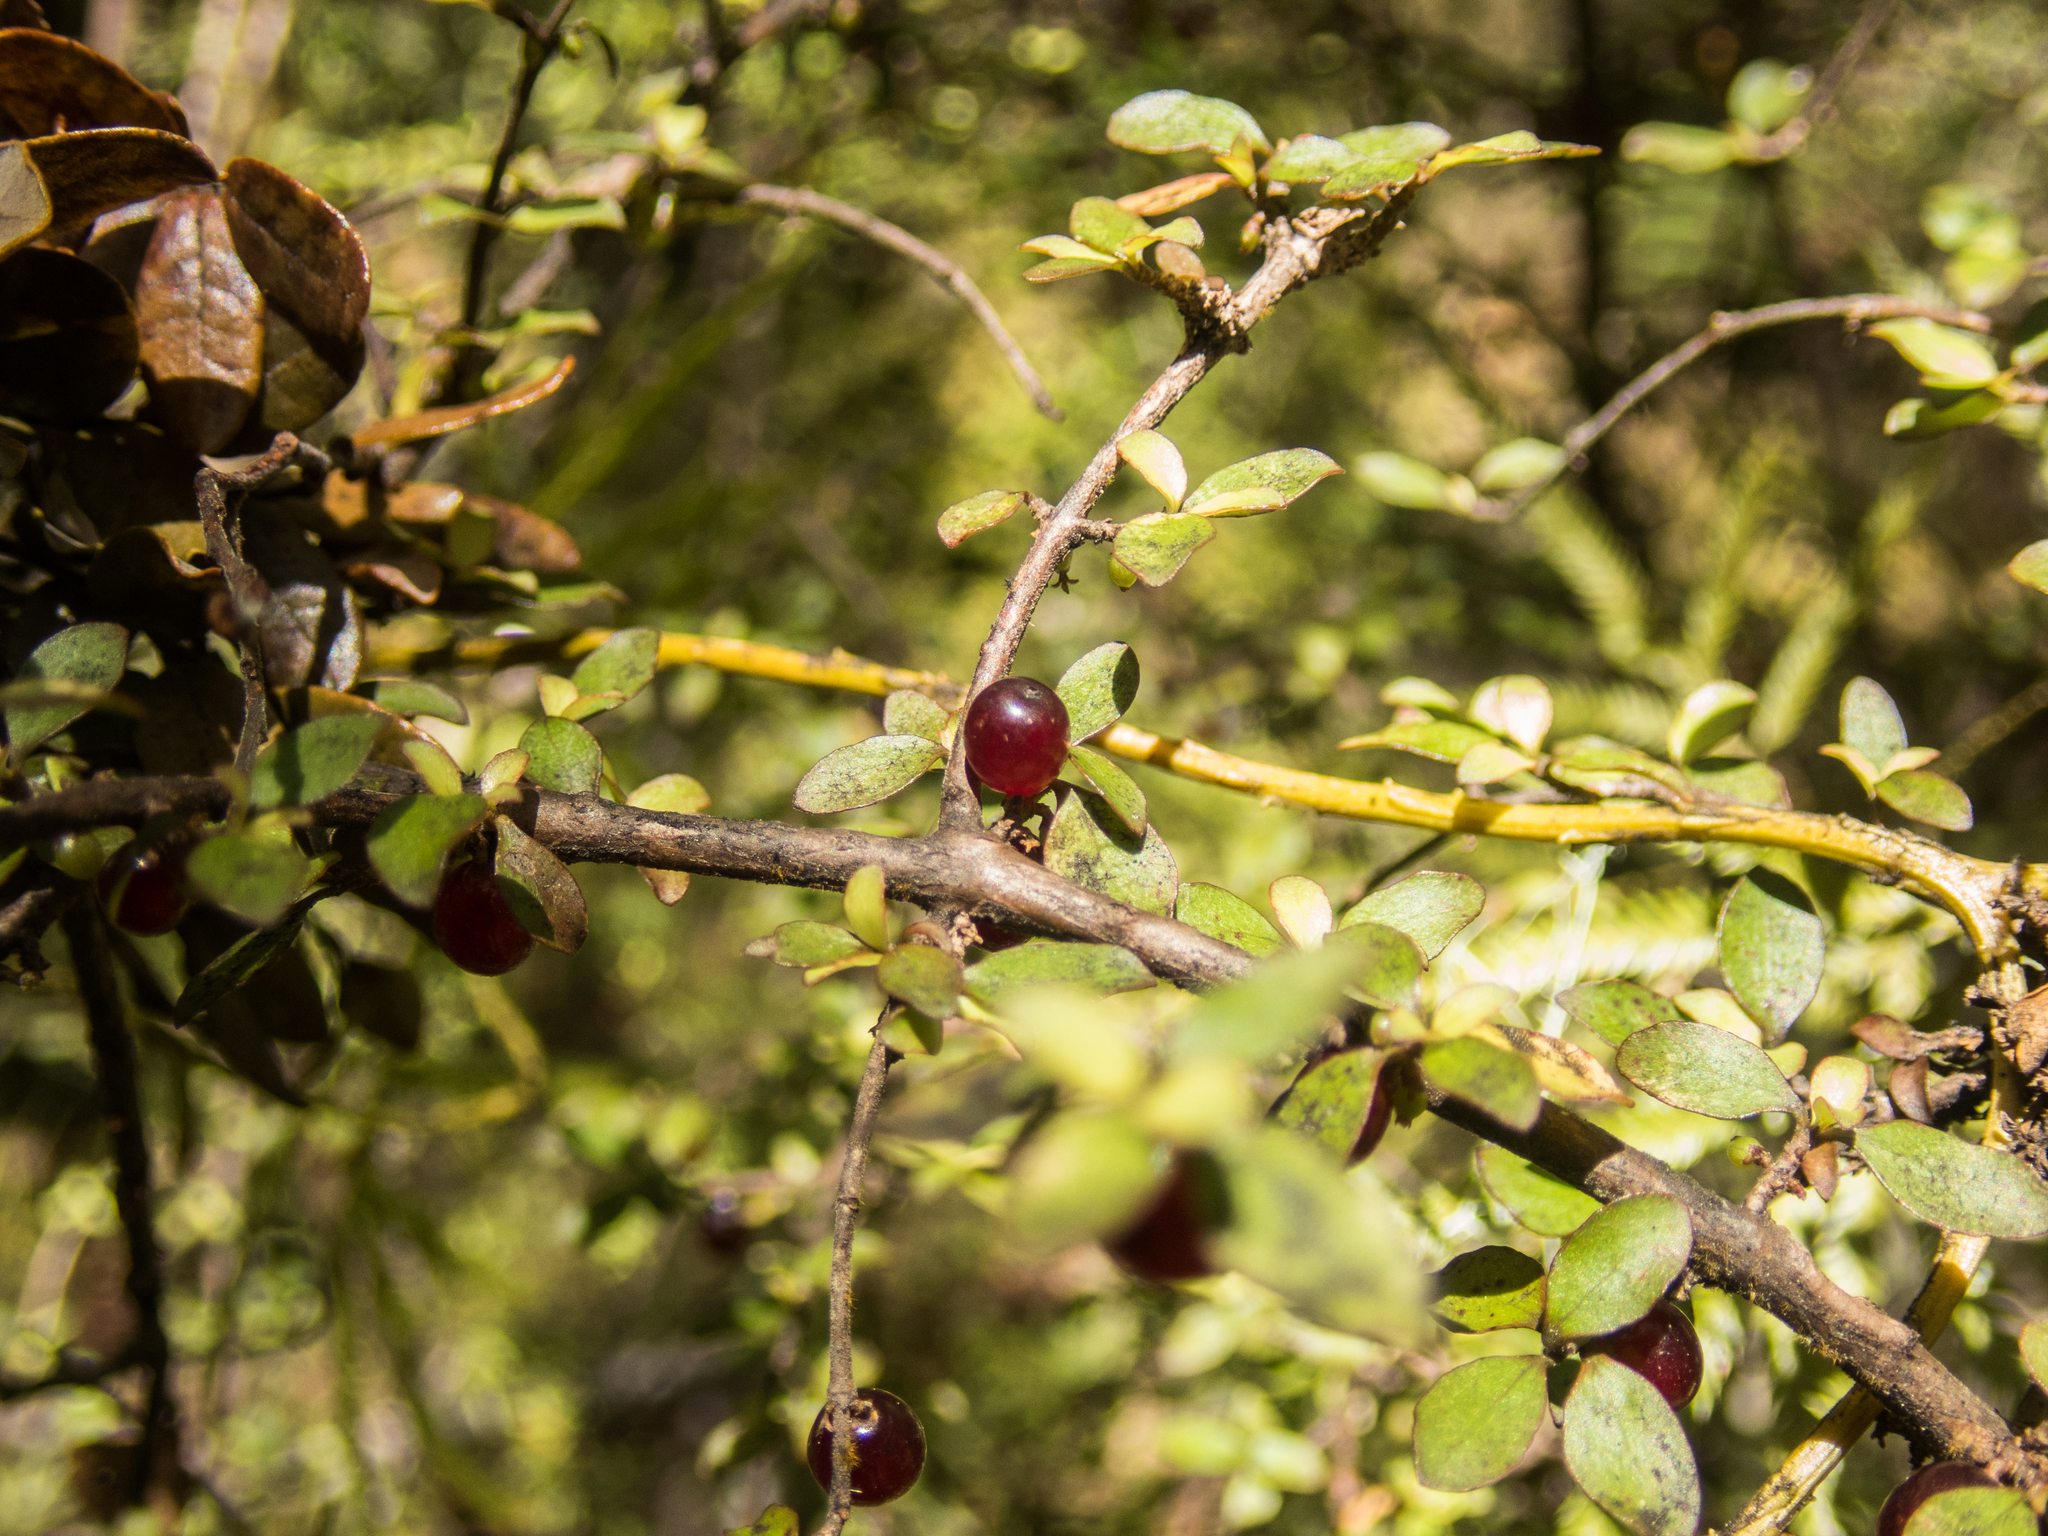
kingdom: Plantae
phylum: Tracheophyta
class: Magnoliopsida
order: Gentianales
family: Rubiaceae
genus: Coprosma
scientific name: Coprosma rhamnoides
